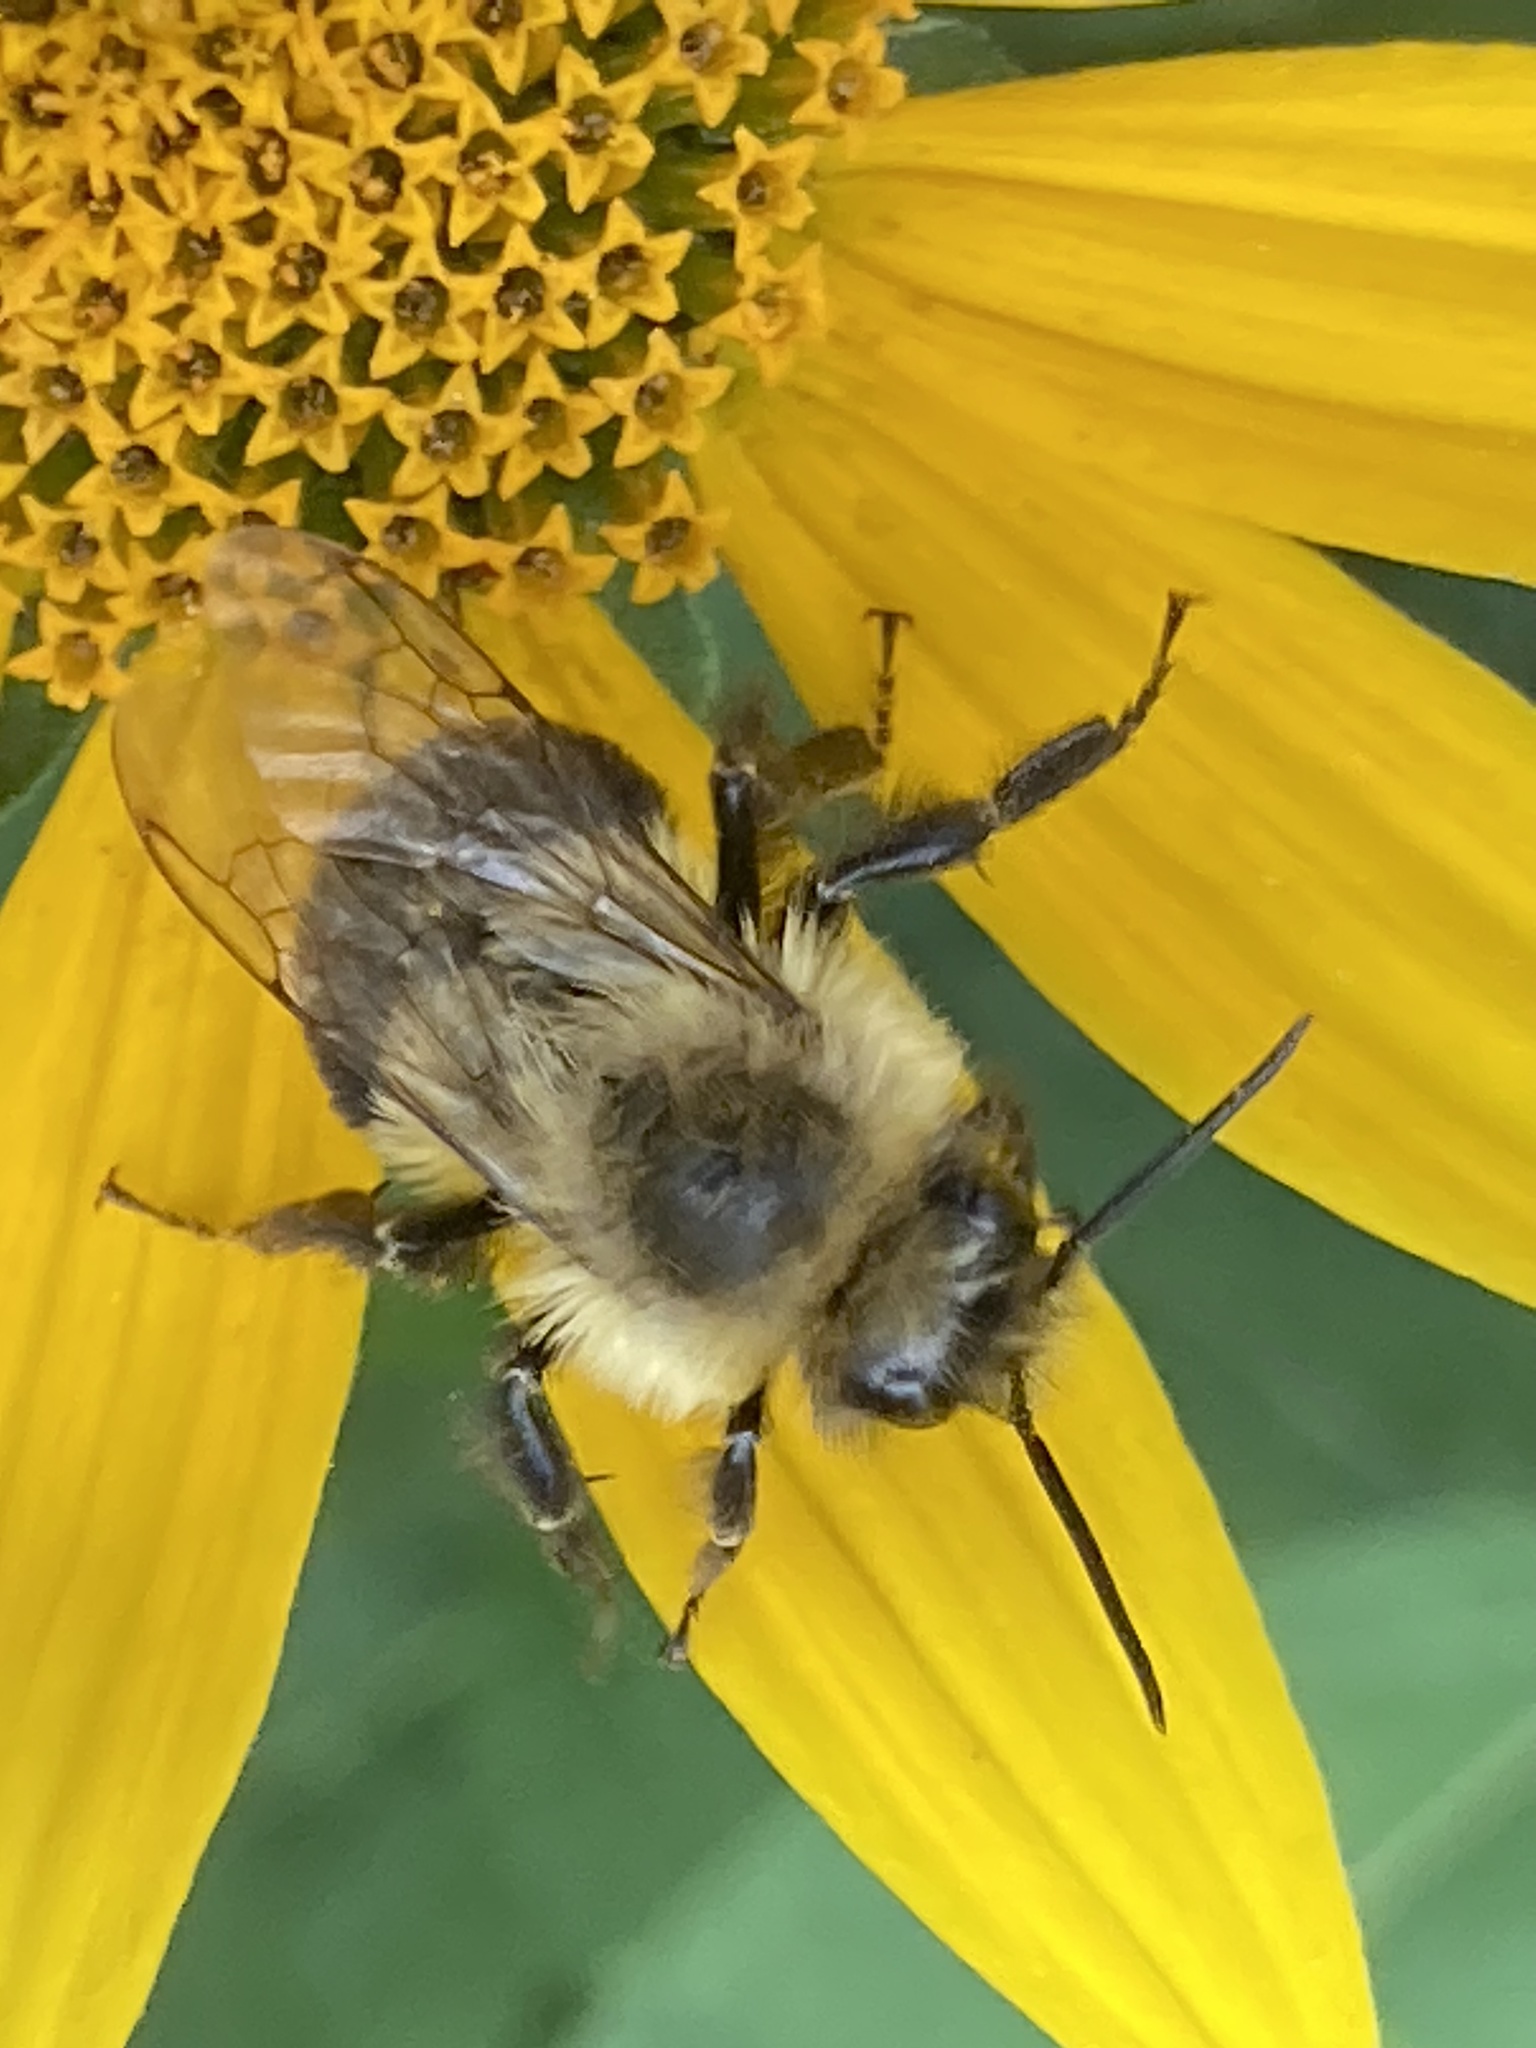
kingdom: Animalia
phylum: Arthropoda
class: Insecta
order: Hymenoptera
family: Apidae
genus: Bombus
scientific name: Bombus impatiens
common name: Common eastern bumble bee
